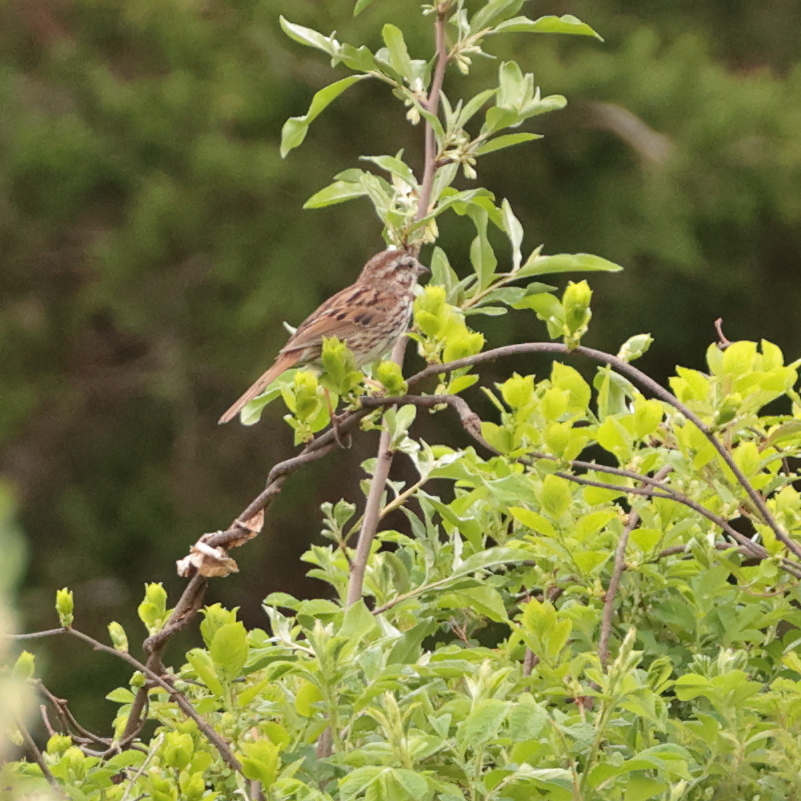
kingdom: Animalia
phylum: Chordata
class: Aves
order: Passeriformes
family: Passerellidae
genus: Melospiza
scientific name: Melospiza melodia
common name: Song sparrow
